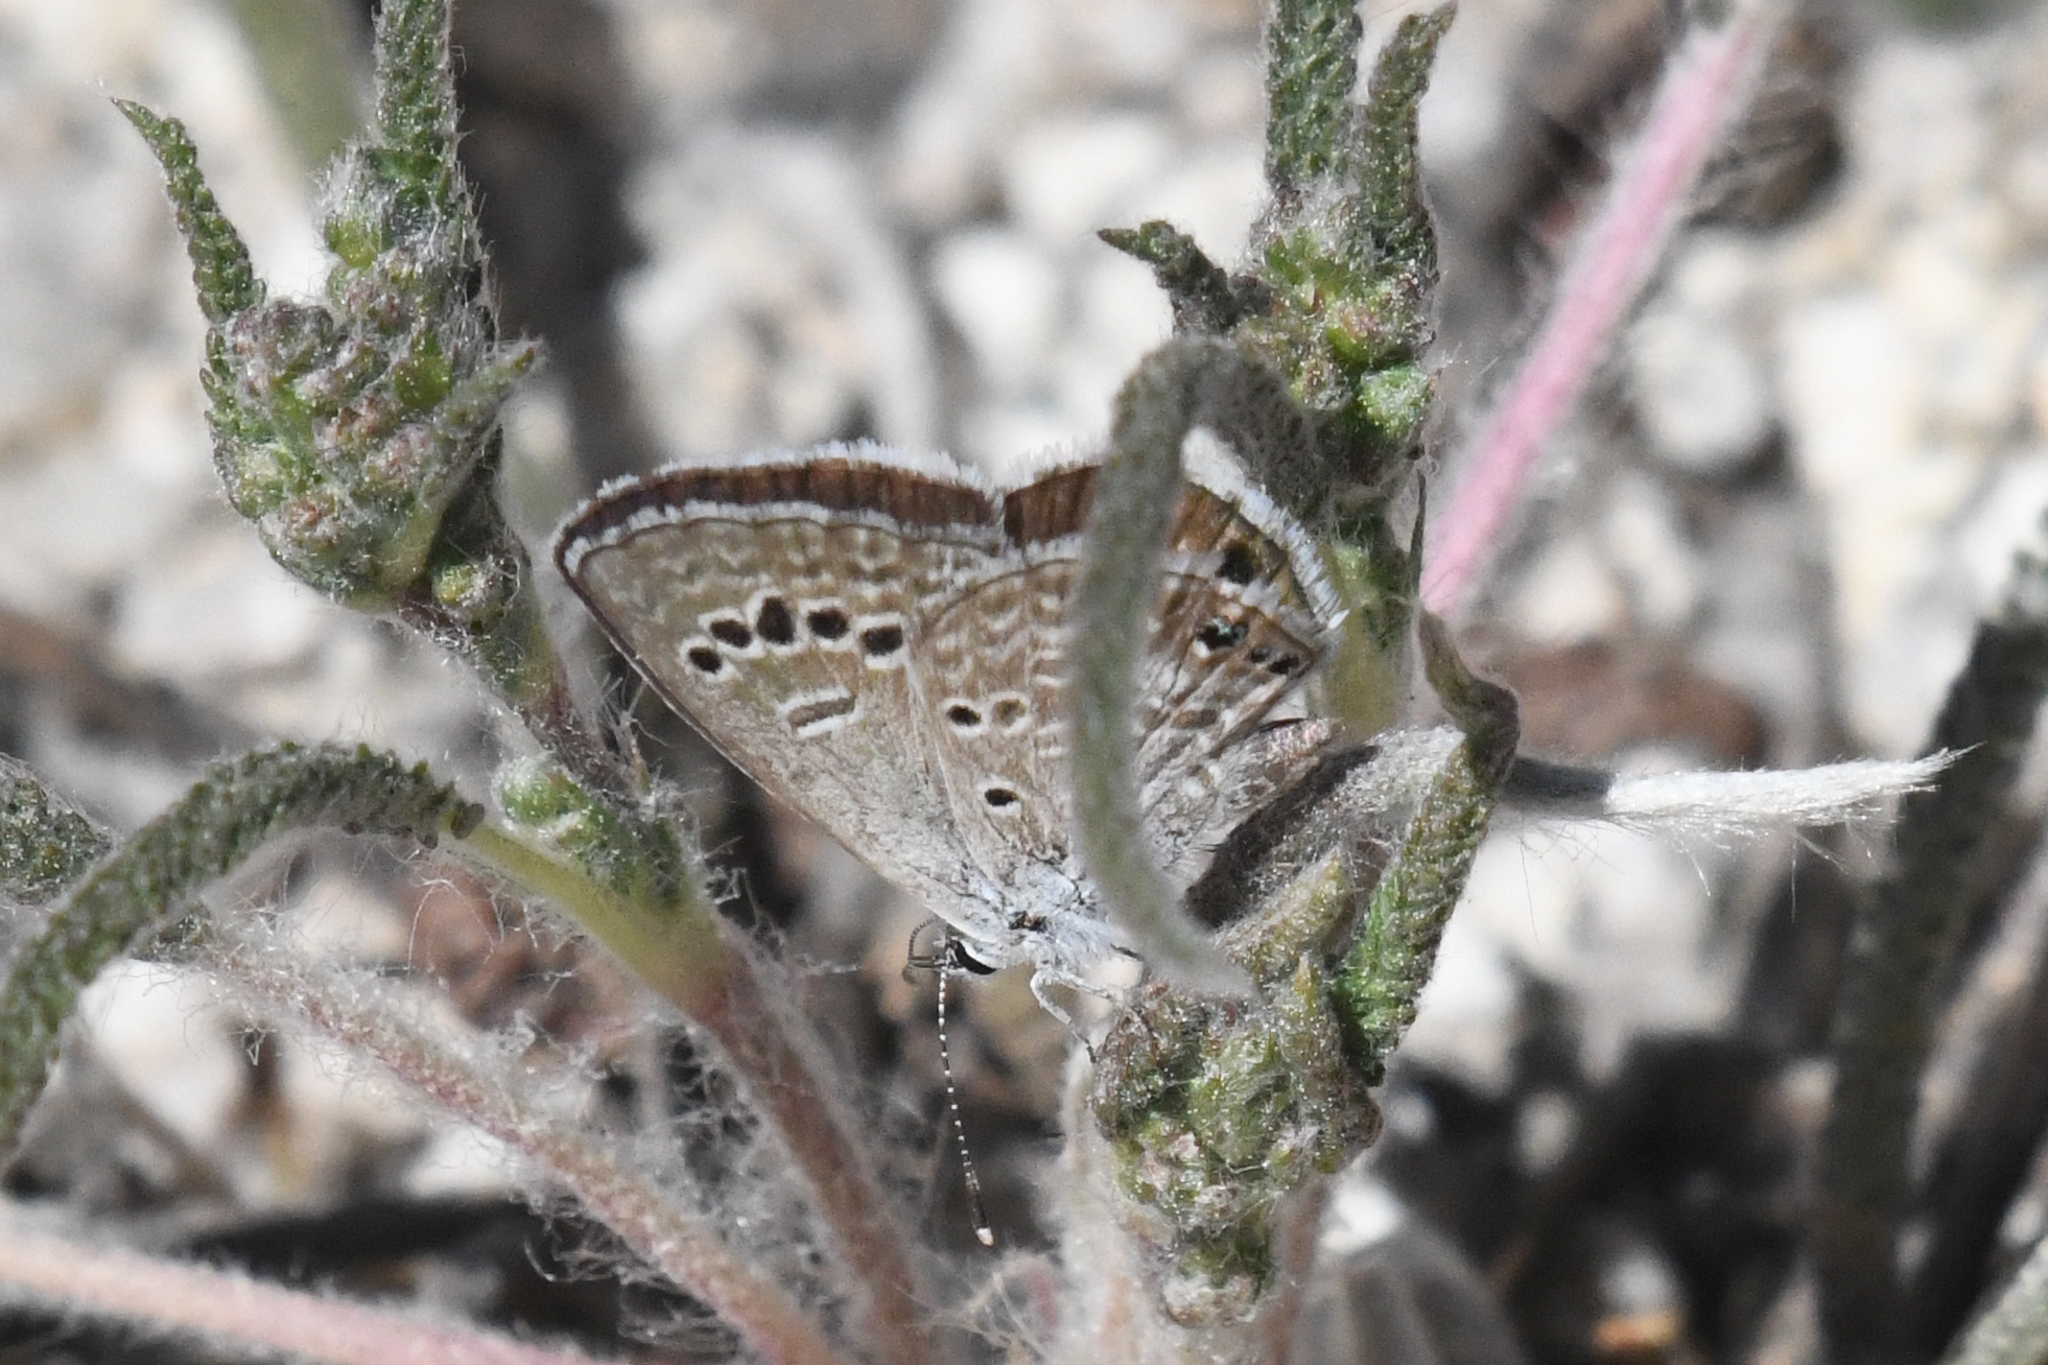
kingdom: Animalia
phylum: Arthropoda
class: Insecta
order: Lepidoptera
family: Lycaenidae
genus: Echinargus
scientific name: Echinargus isola
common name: Reakirt's blue
